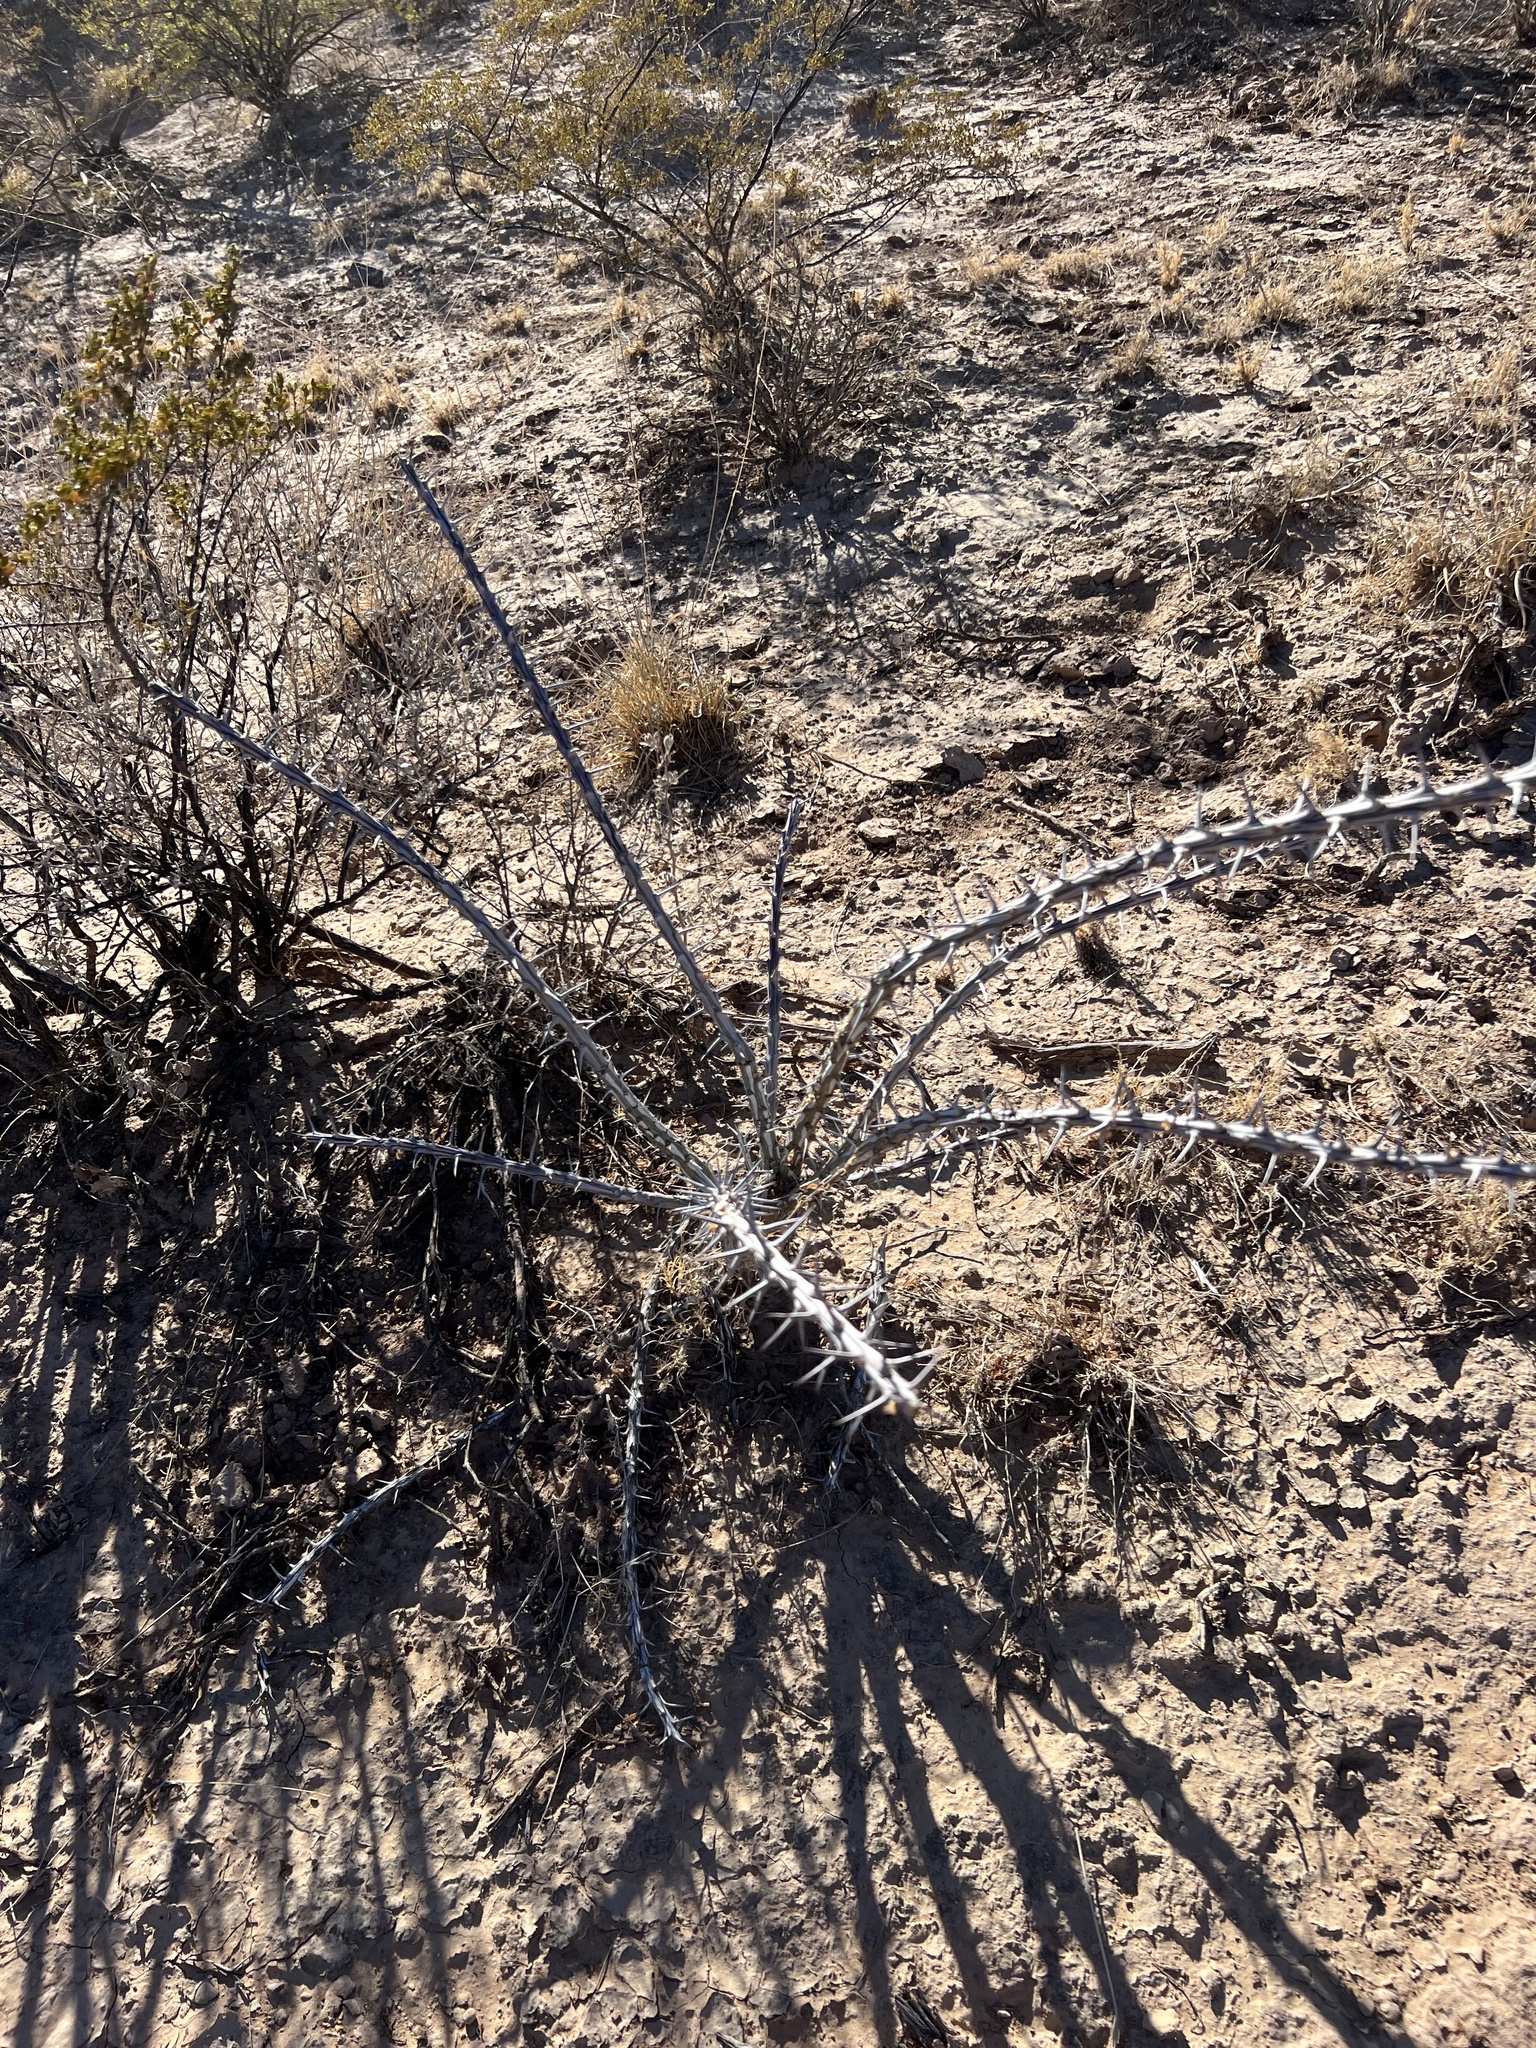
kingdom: Plantae
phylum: Tracheophyta
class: Magnoliopsida
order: Ericales
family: Fouquieriaceae
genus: Fouquieria
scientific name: Fouquieria splendens
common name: Vine-cactus
